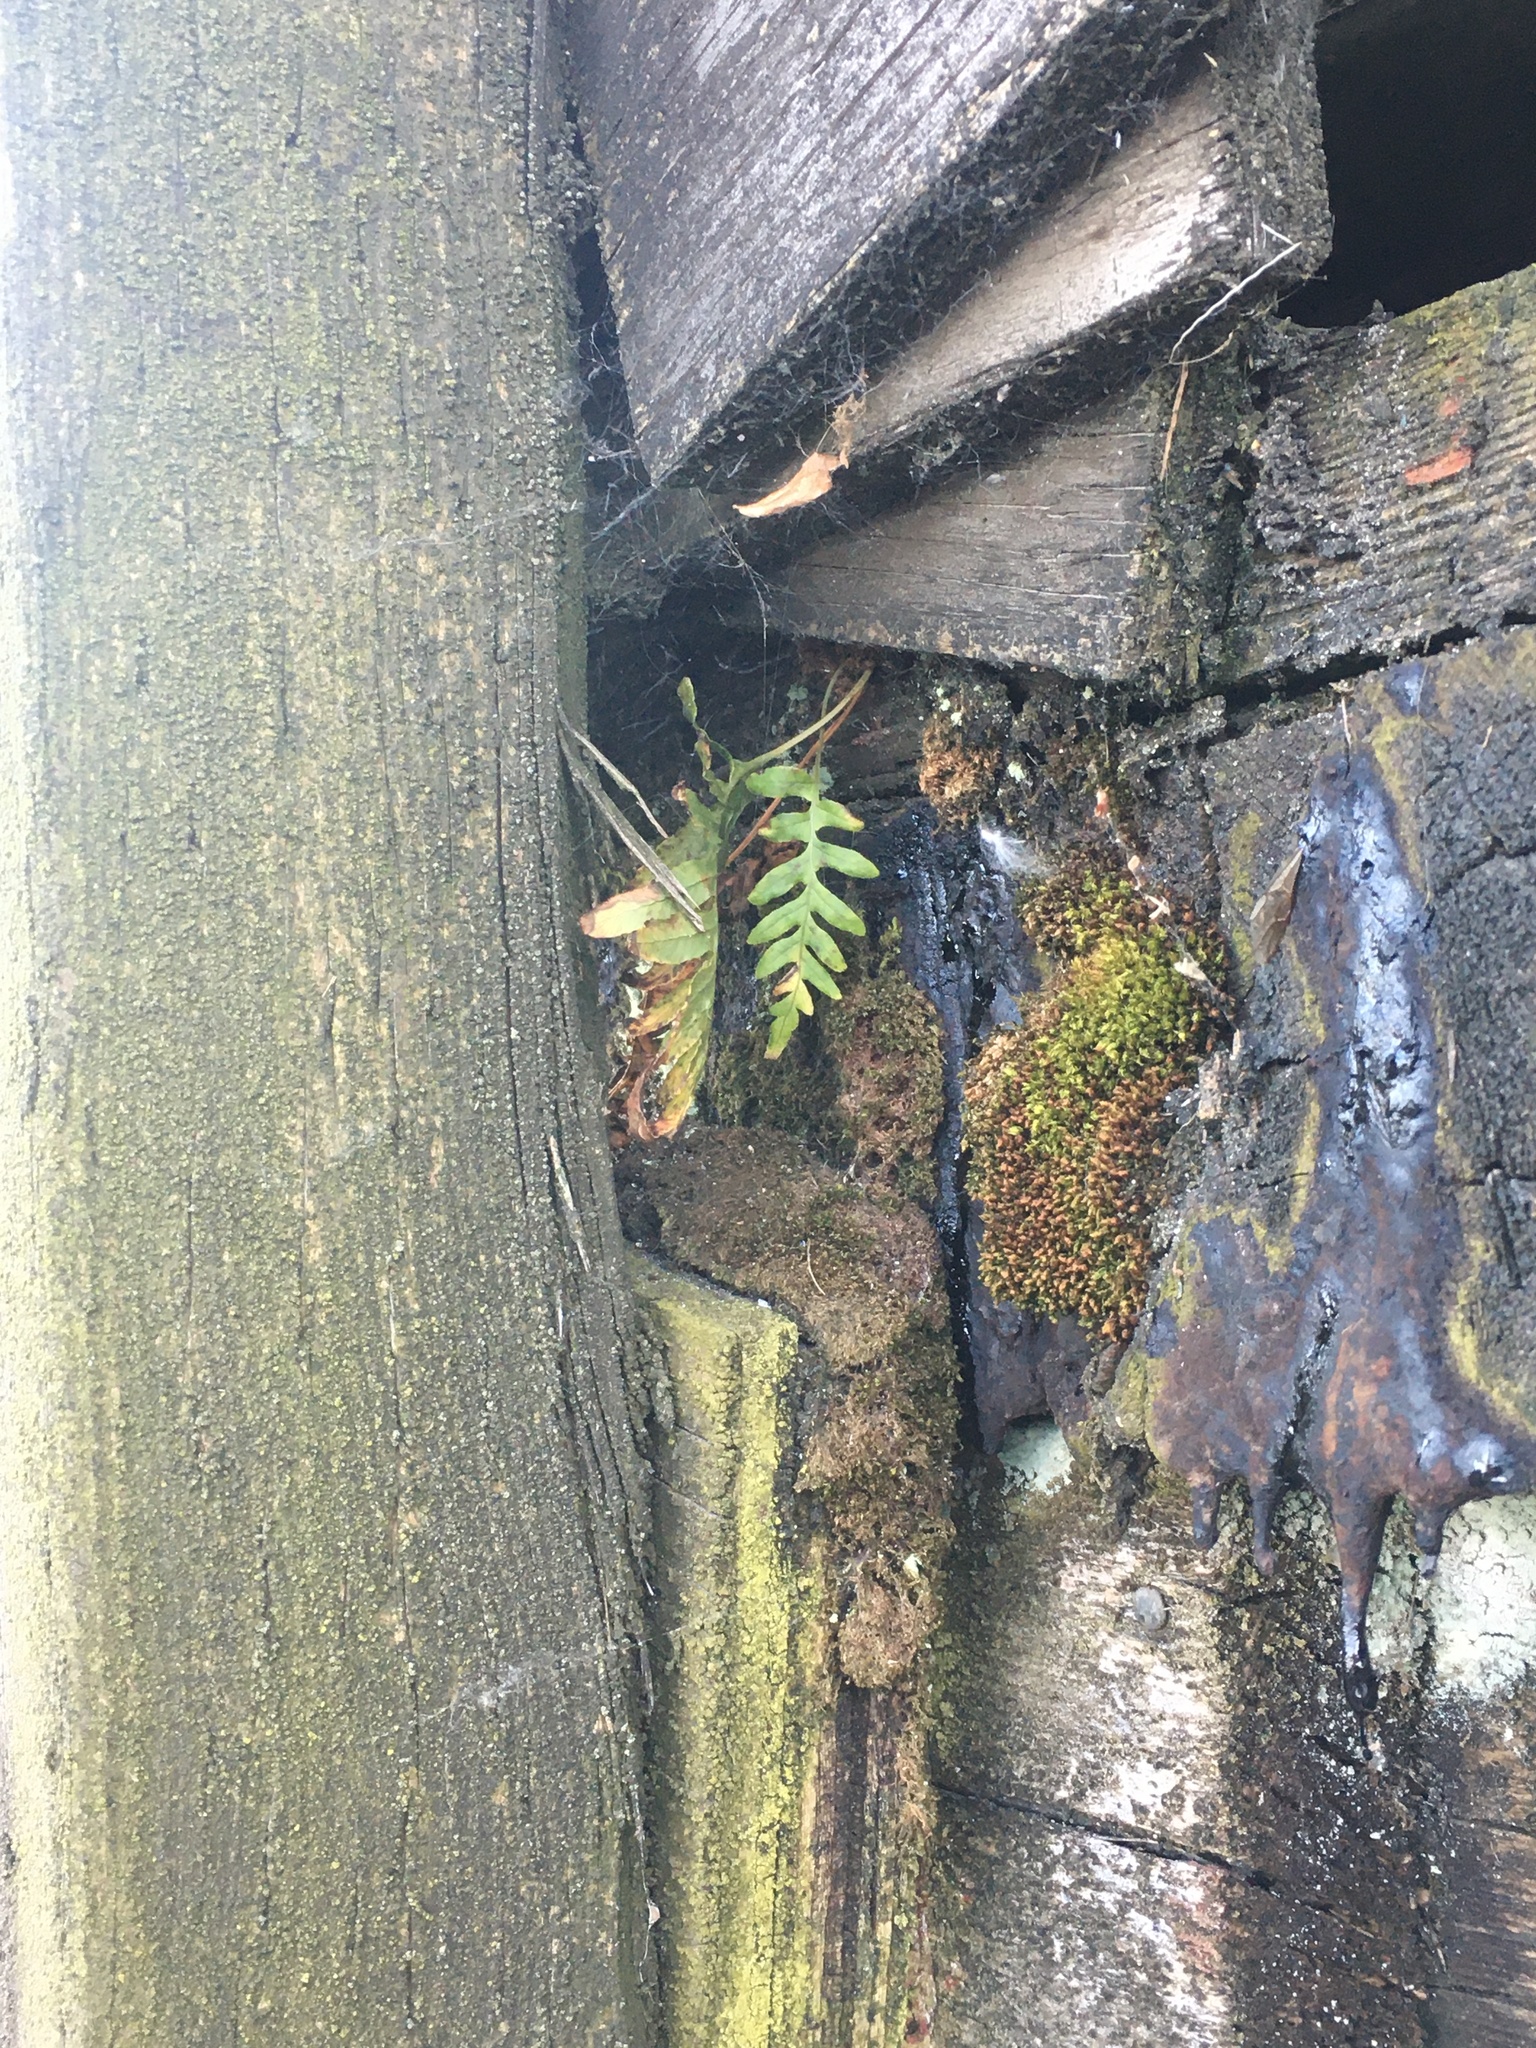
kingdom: Plantae
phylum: Tracheophyta
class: Polypodiopsida
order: Polypodiales
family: Polypodiaceae
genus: Polypodium
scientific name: Polypodium glycyrrhiza
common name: Licorice fern
